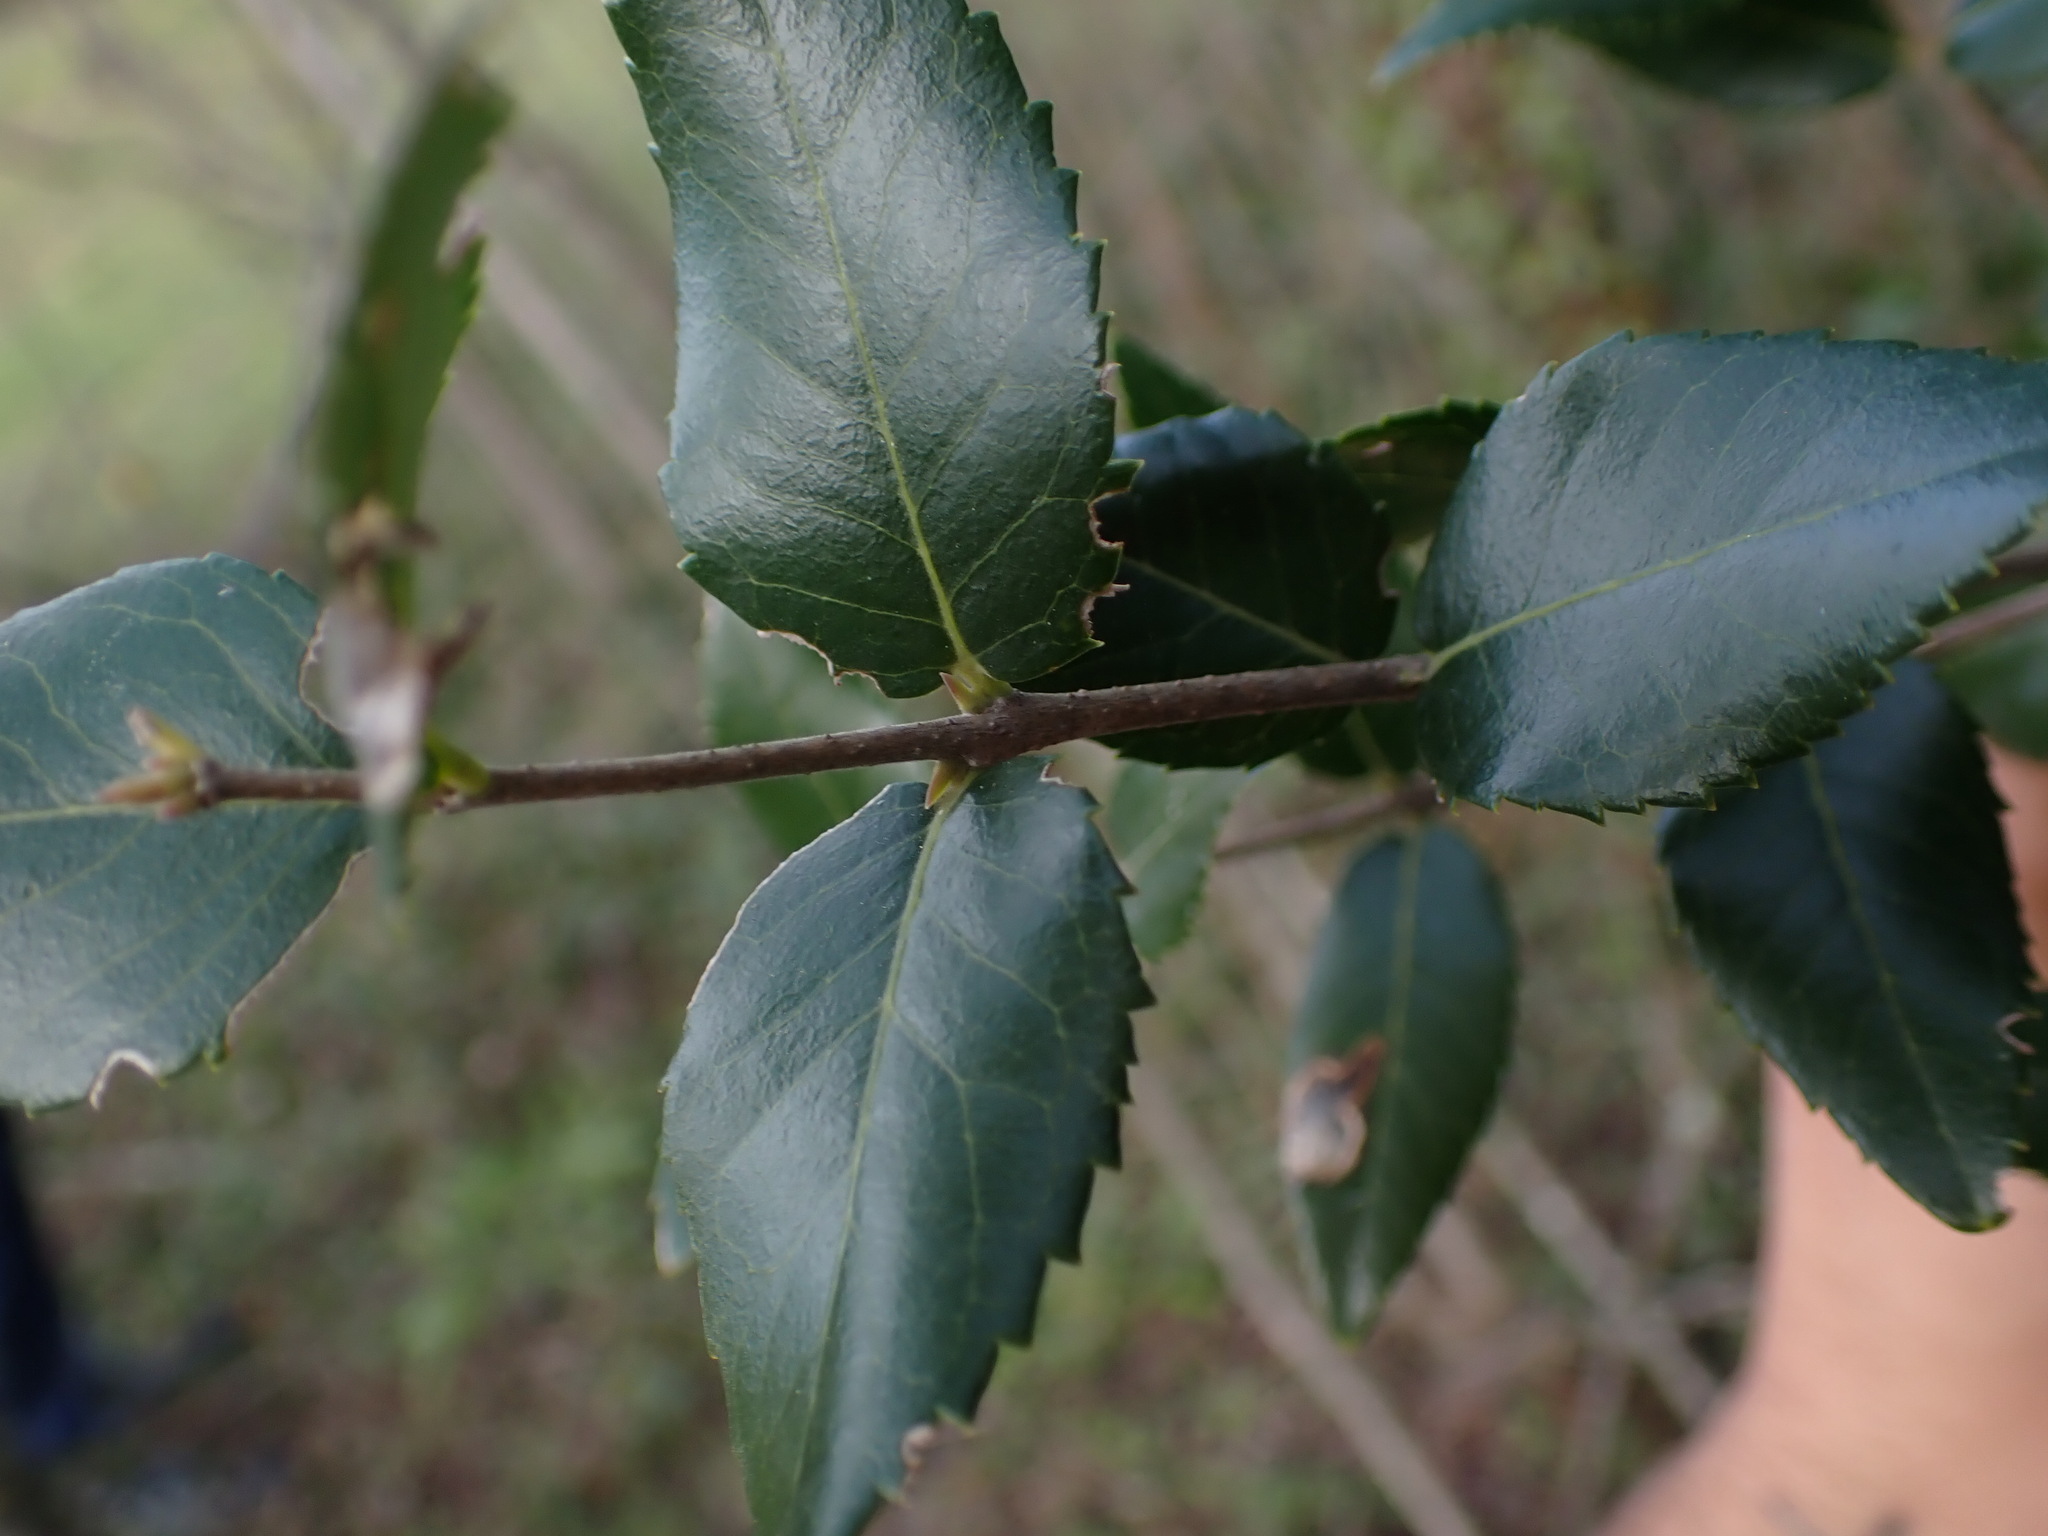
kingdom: Plantae
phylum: Tracheophyta
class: Magnoliopsida
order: Lamiales
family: Oleaceae
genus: Phillyrea
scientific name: Phillyrea latifolia
